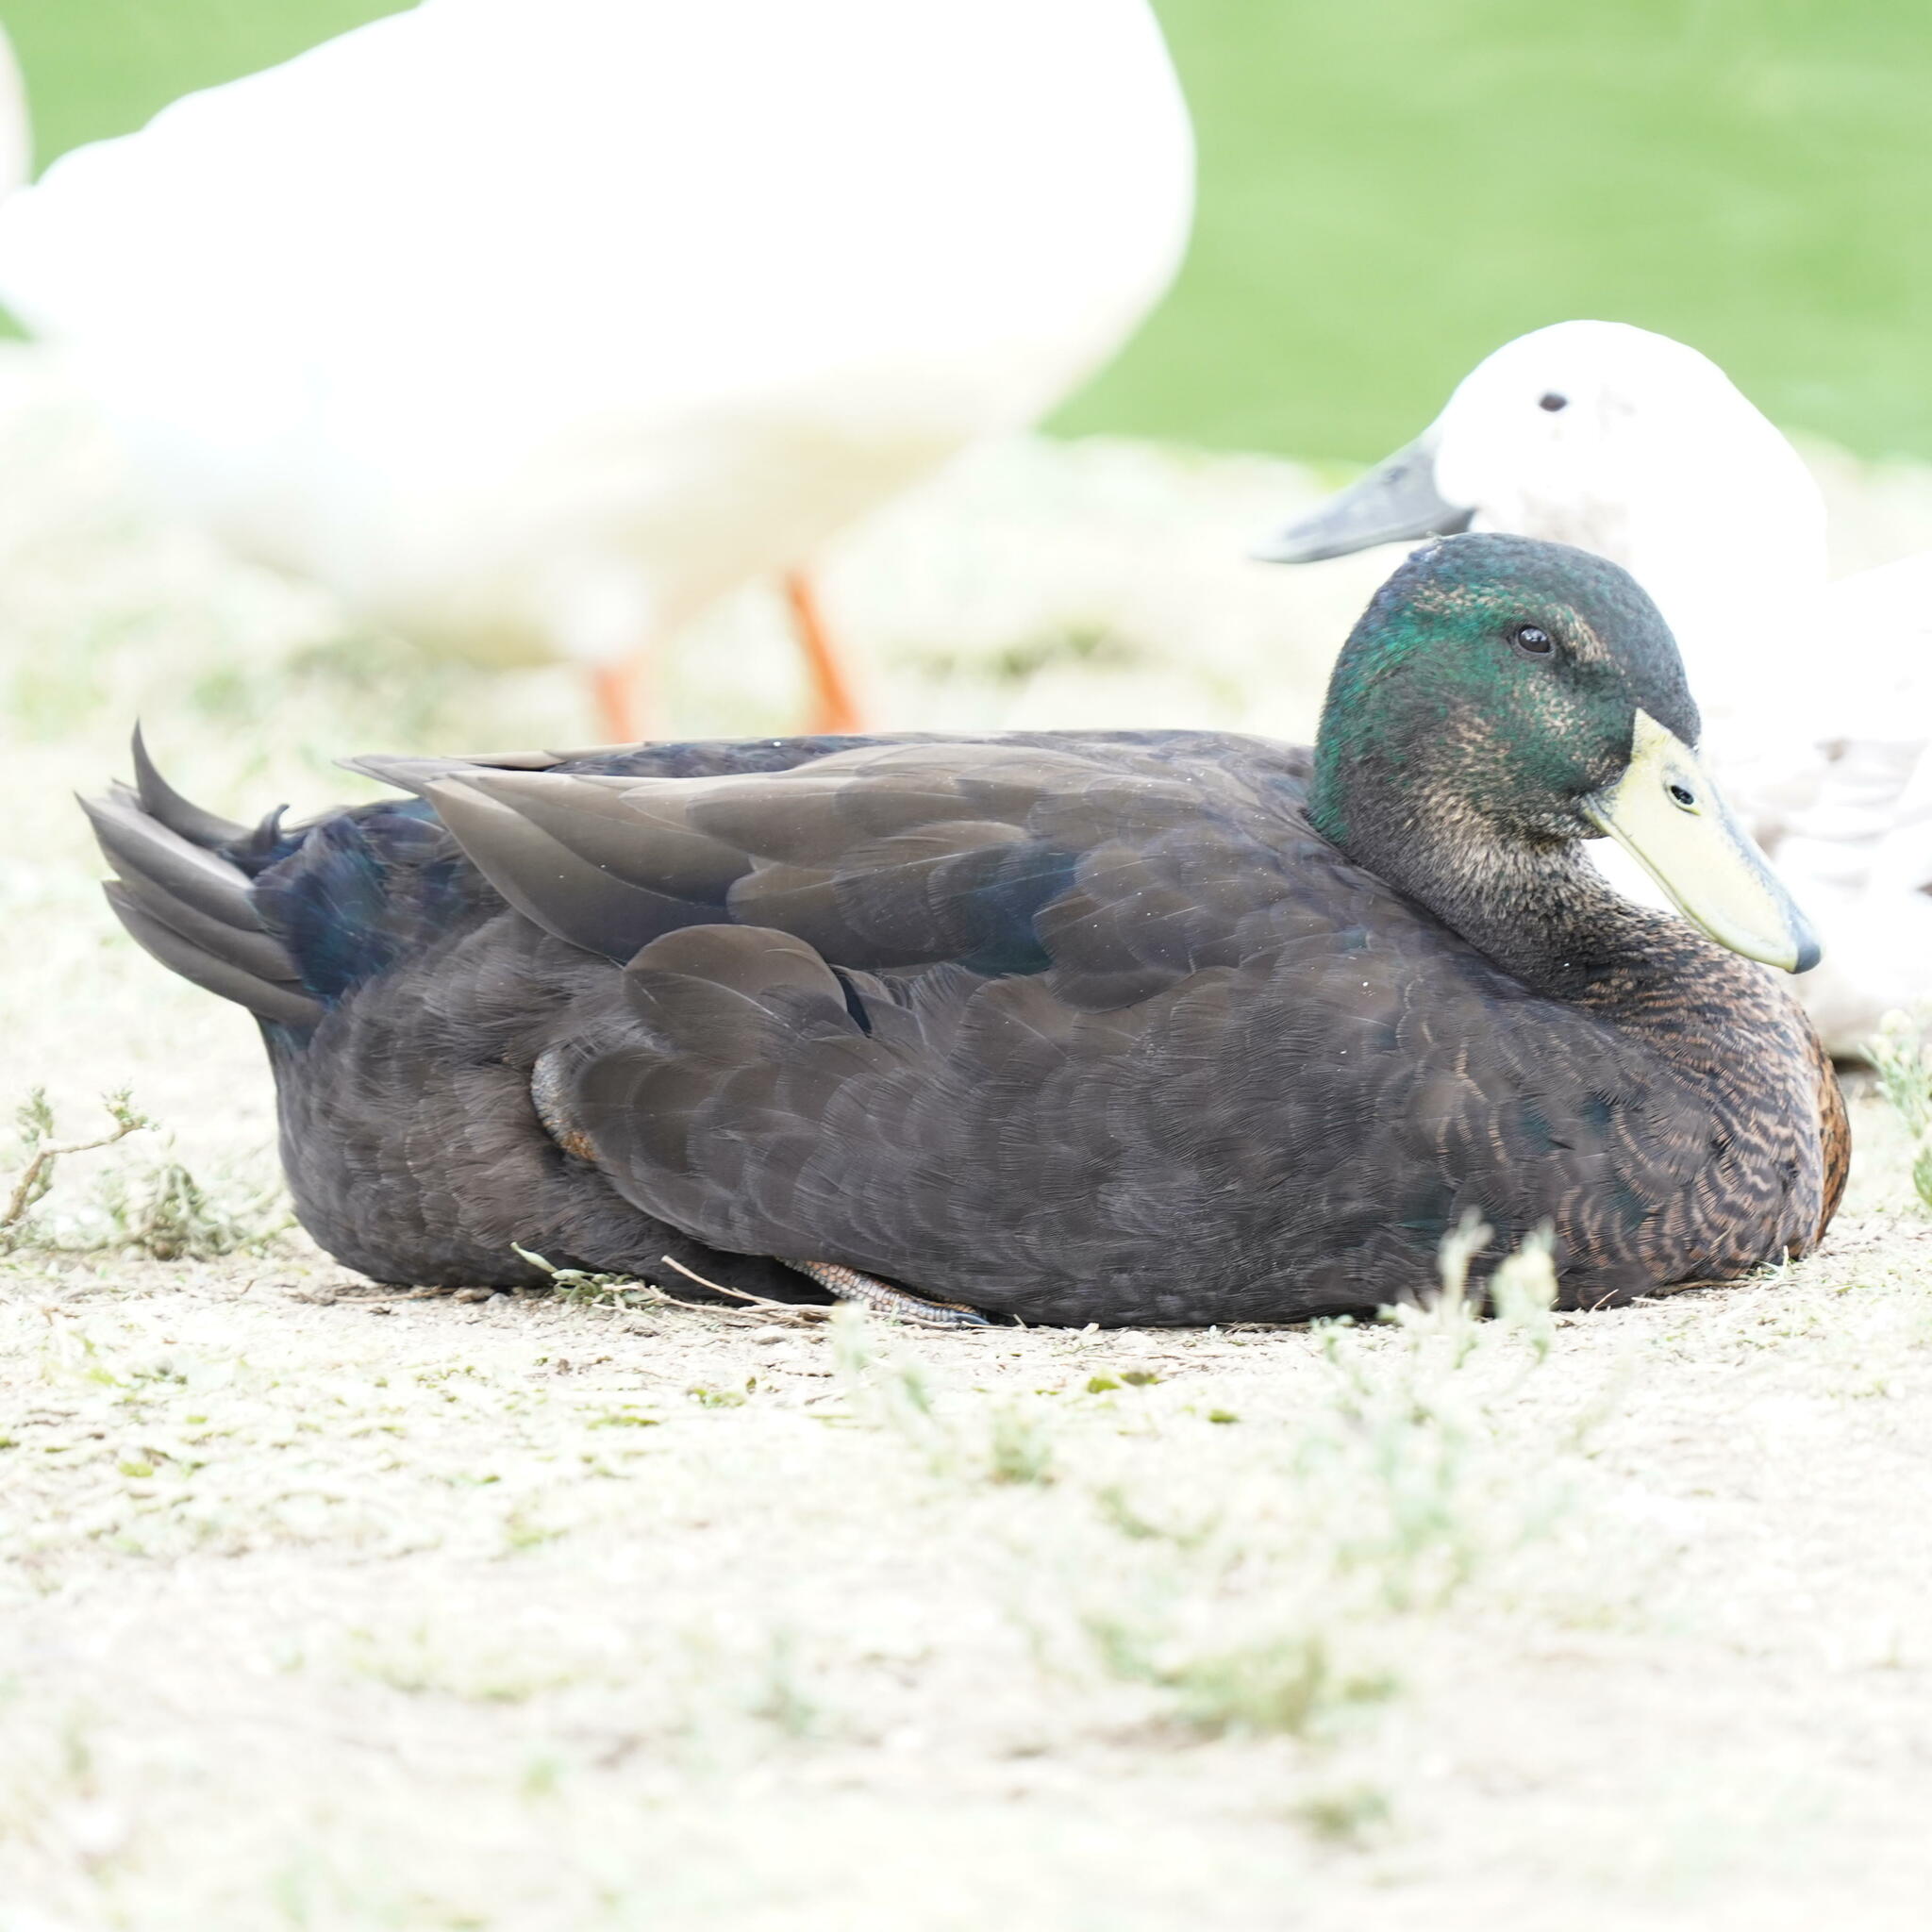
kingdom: Animalia
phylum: Chordata
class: Aves
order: Anseriformes
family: Anatidae
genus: Anas
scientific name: Anas platyrhynchos
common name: Mallard
